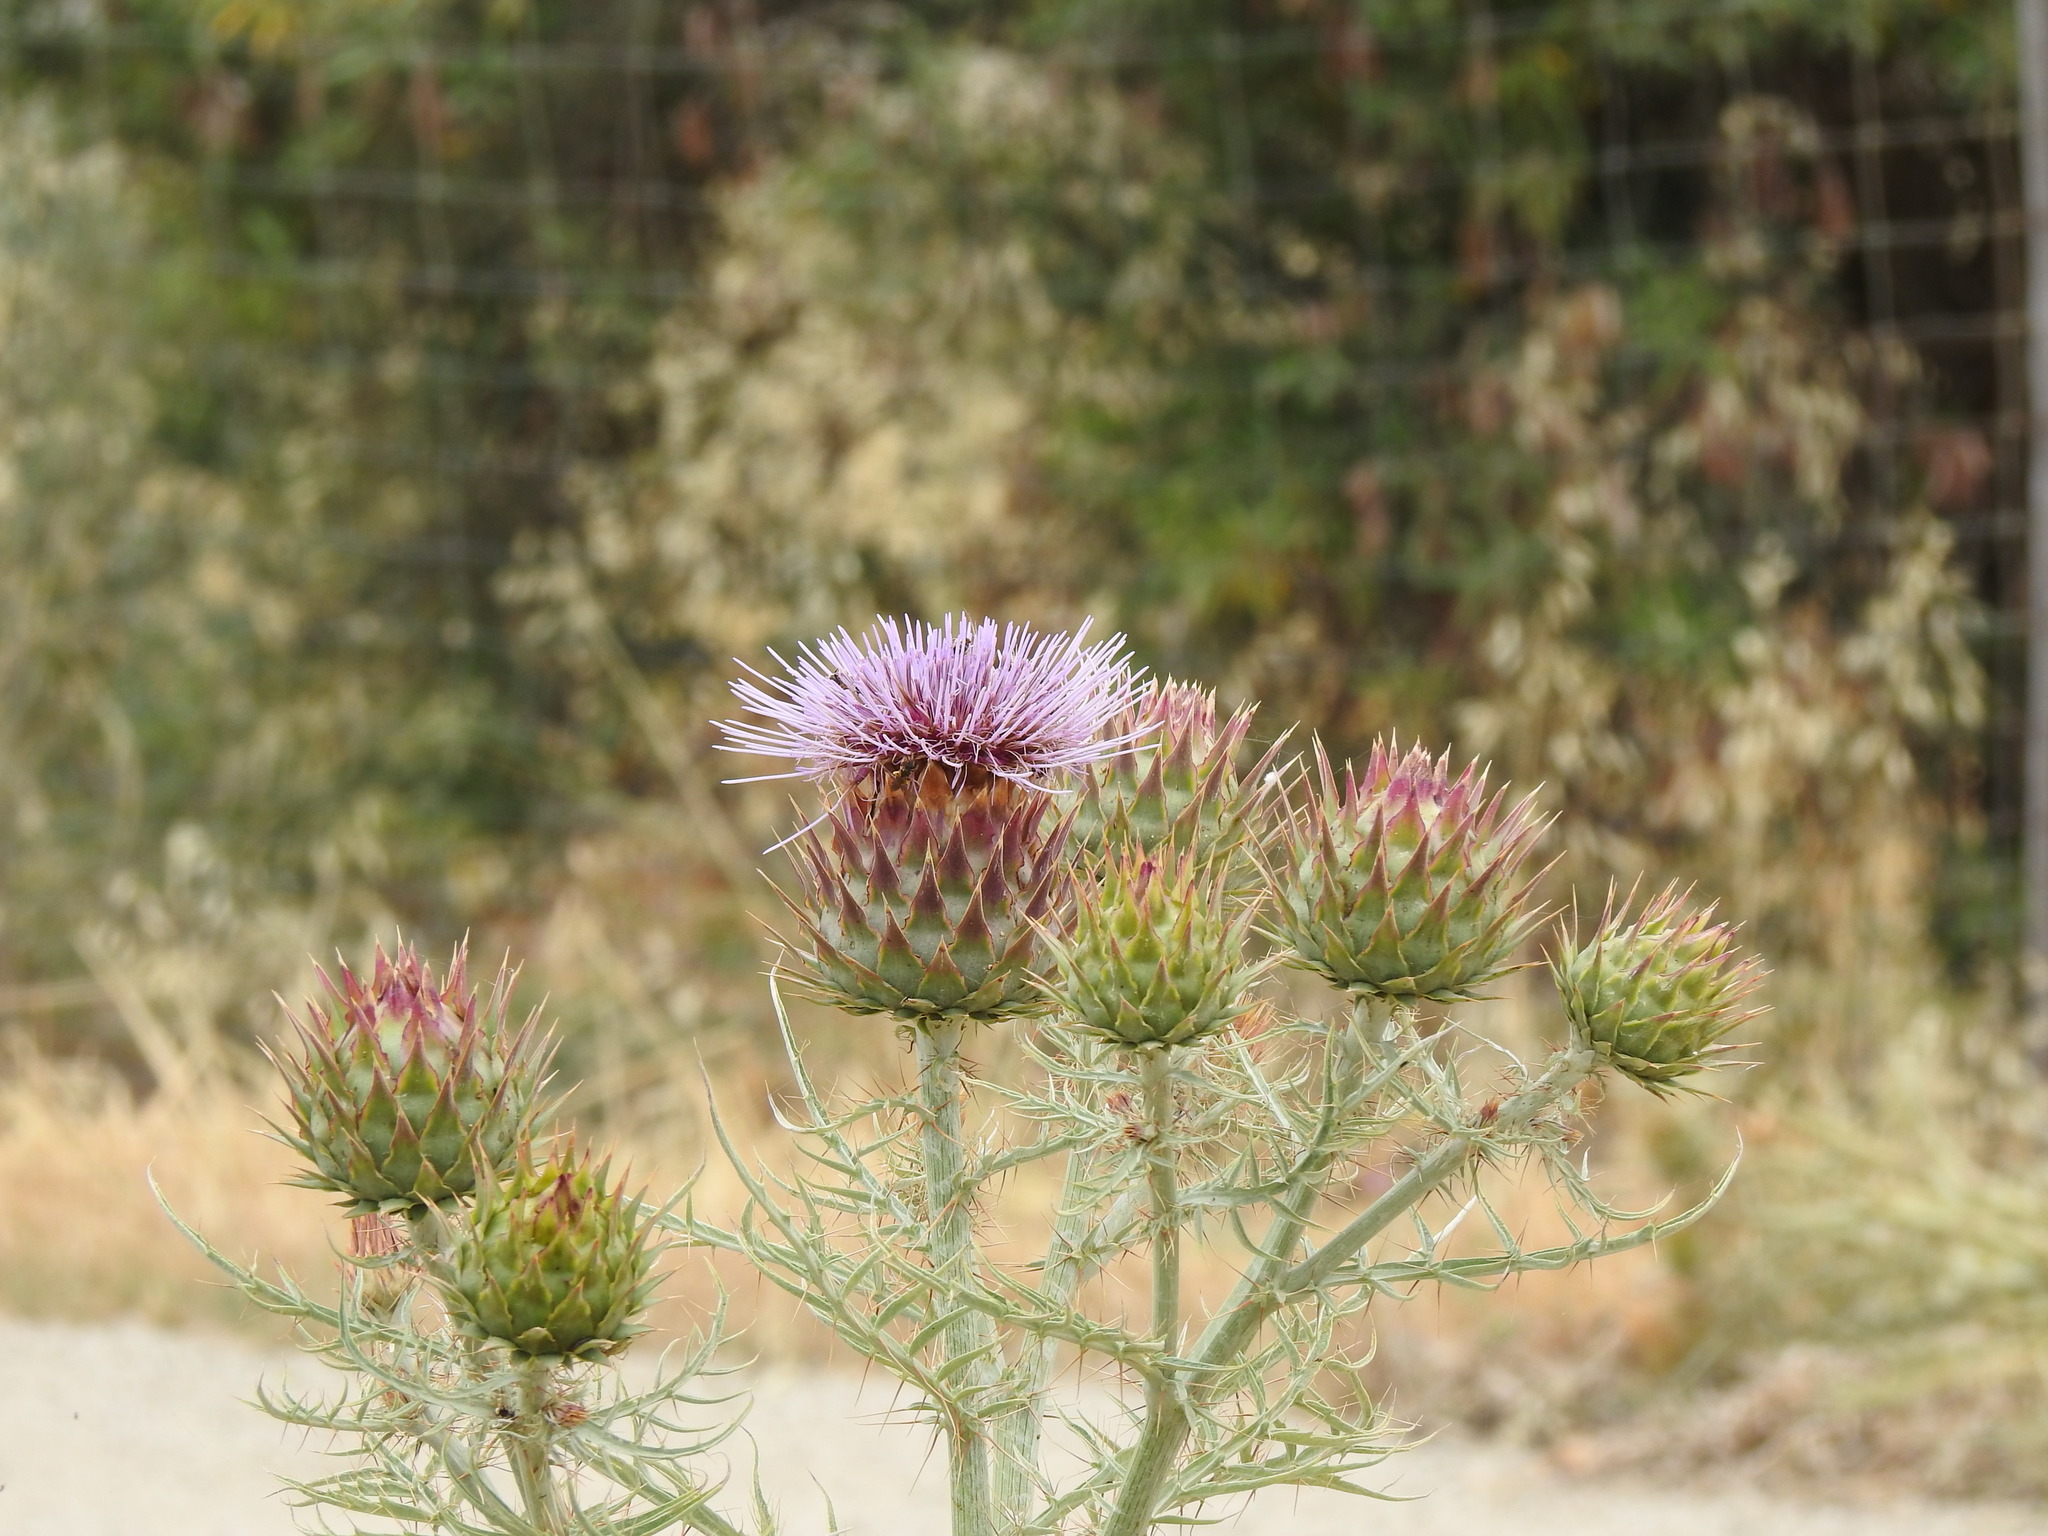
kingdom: Plantae
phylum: Tracheophyta
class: Magnoliopsida
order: Asterales
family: Asteraceae
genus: Cynara
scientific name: Cynara cardunculus
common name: Globe artichoke
